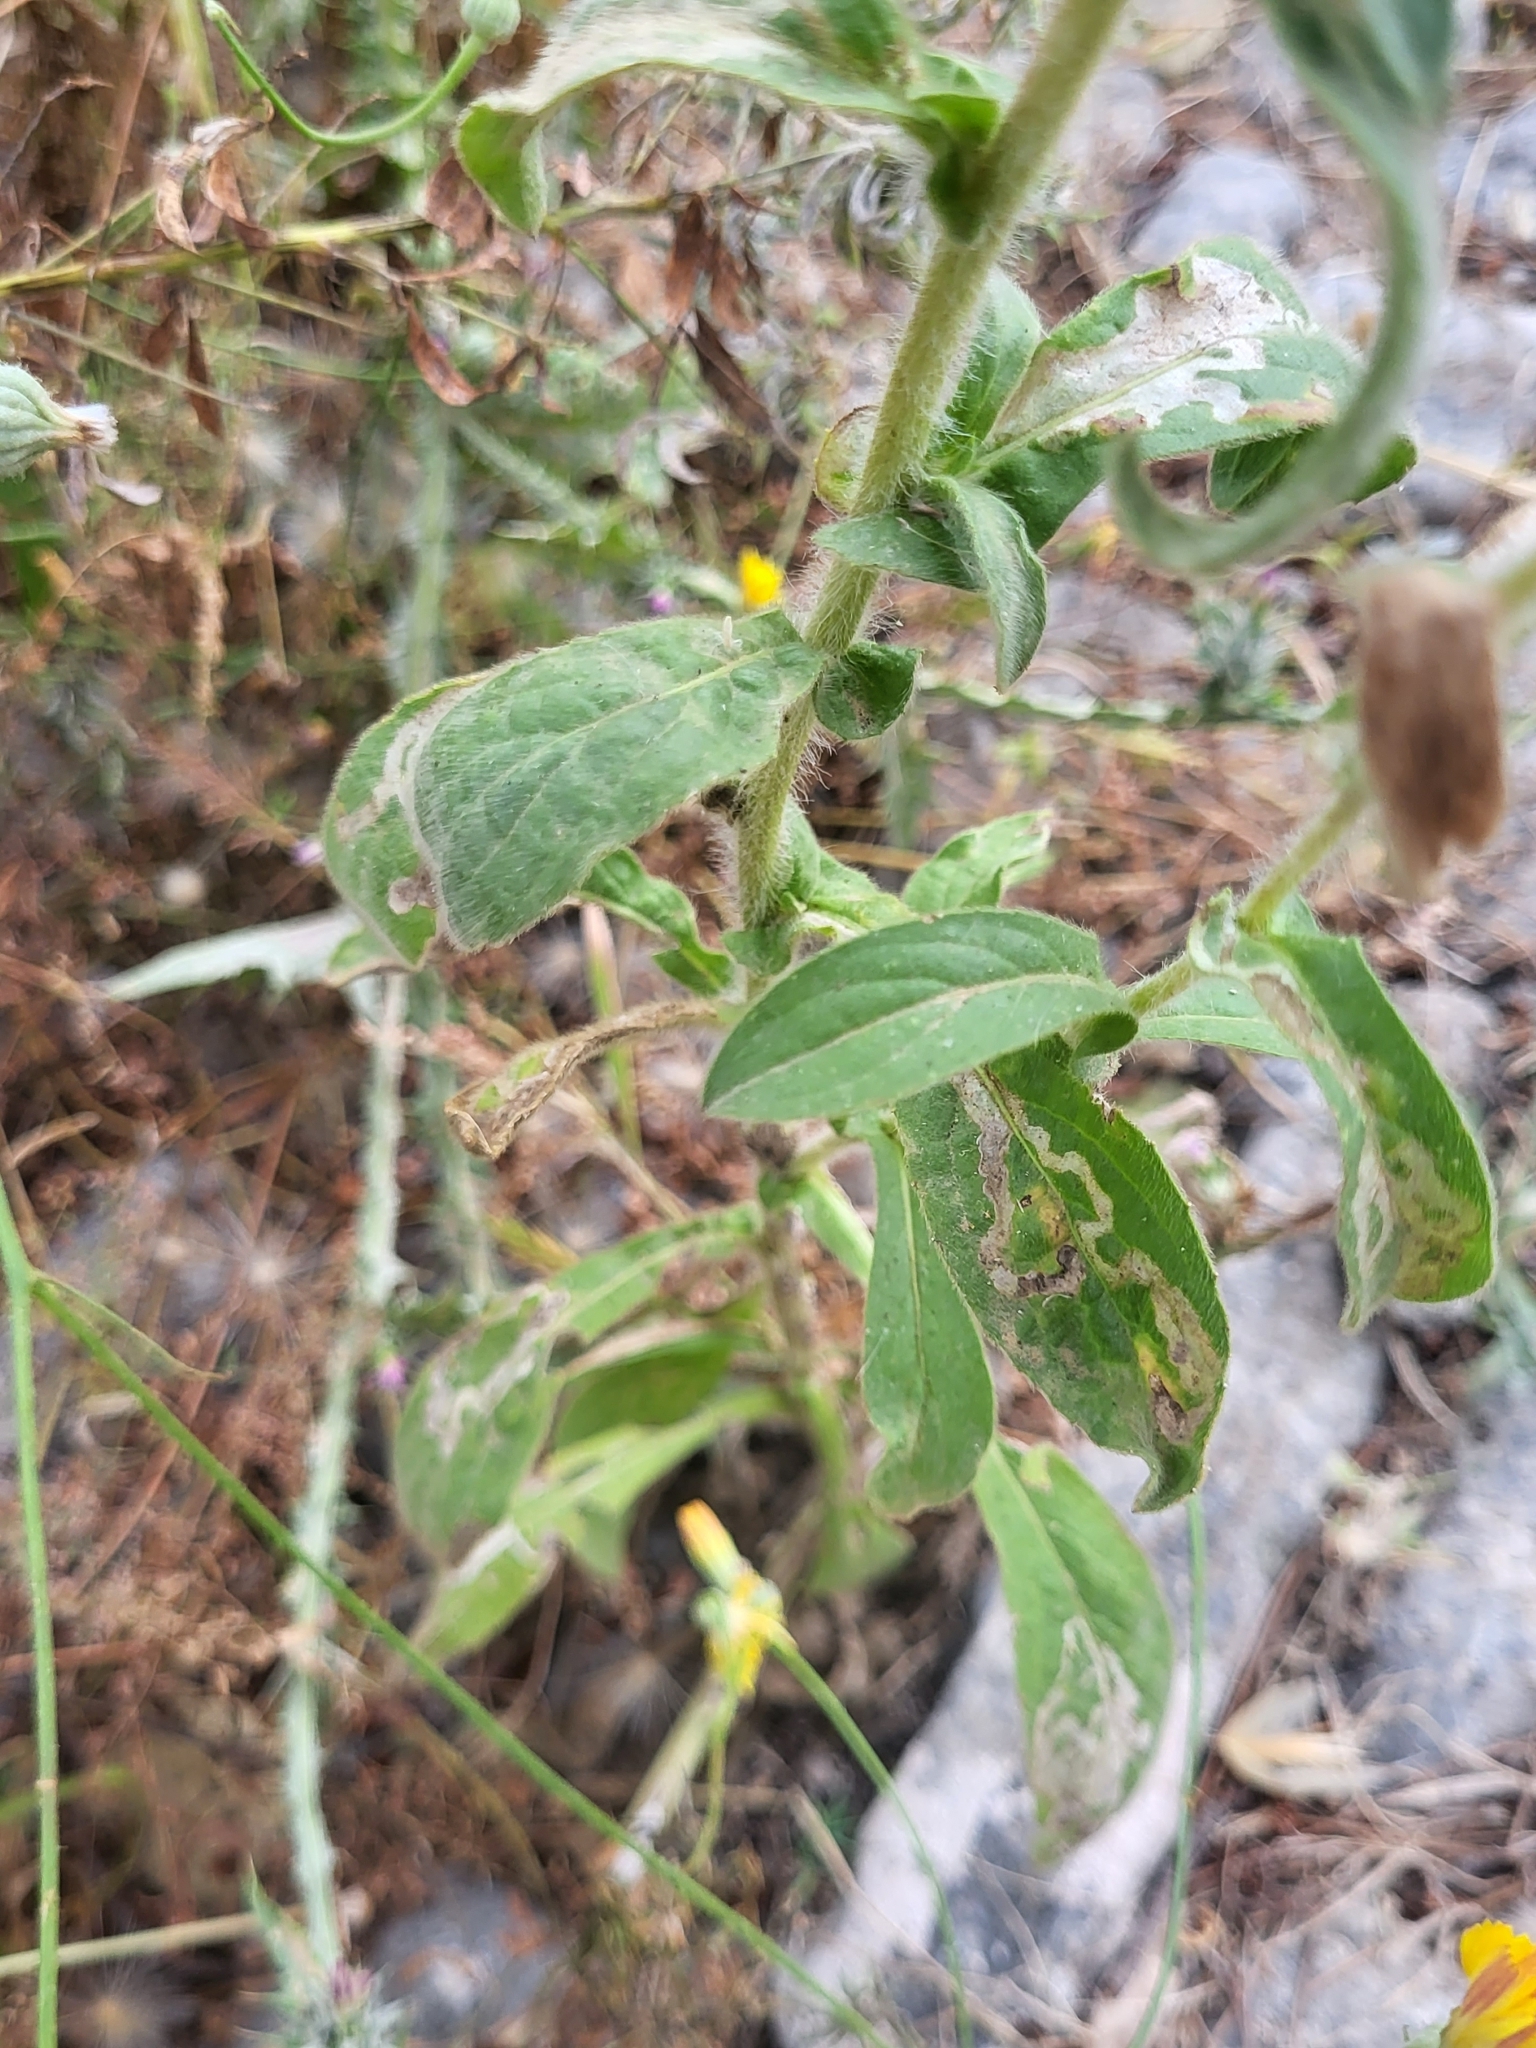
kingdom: Plantae
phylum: Tracheophyta
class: Magnoliopsida
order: Asterales
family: Asteraceae
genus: Pallenis
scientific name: Pallenis spinosa
